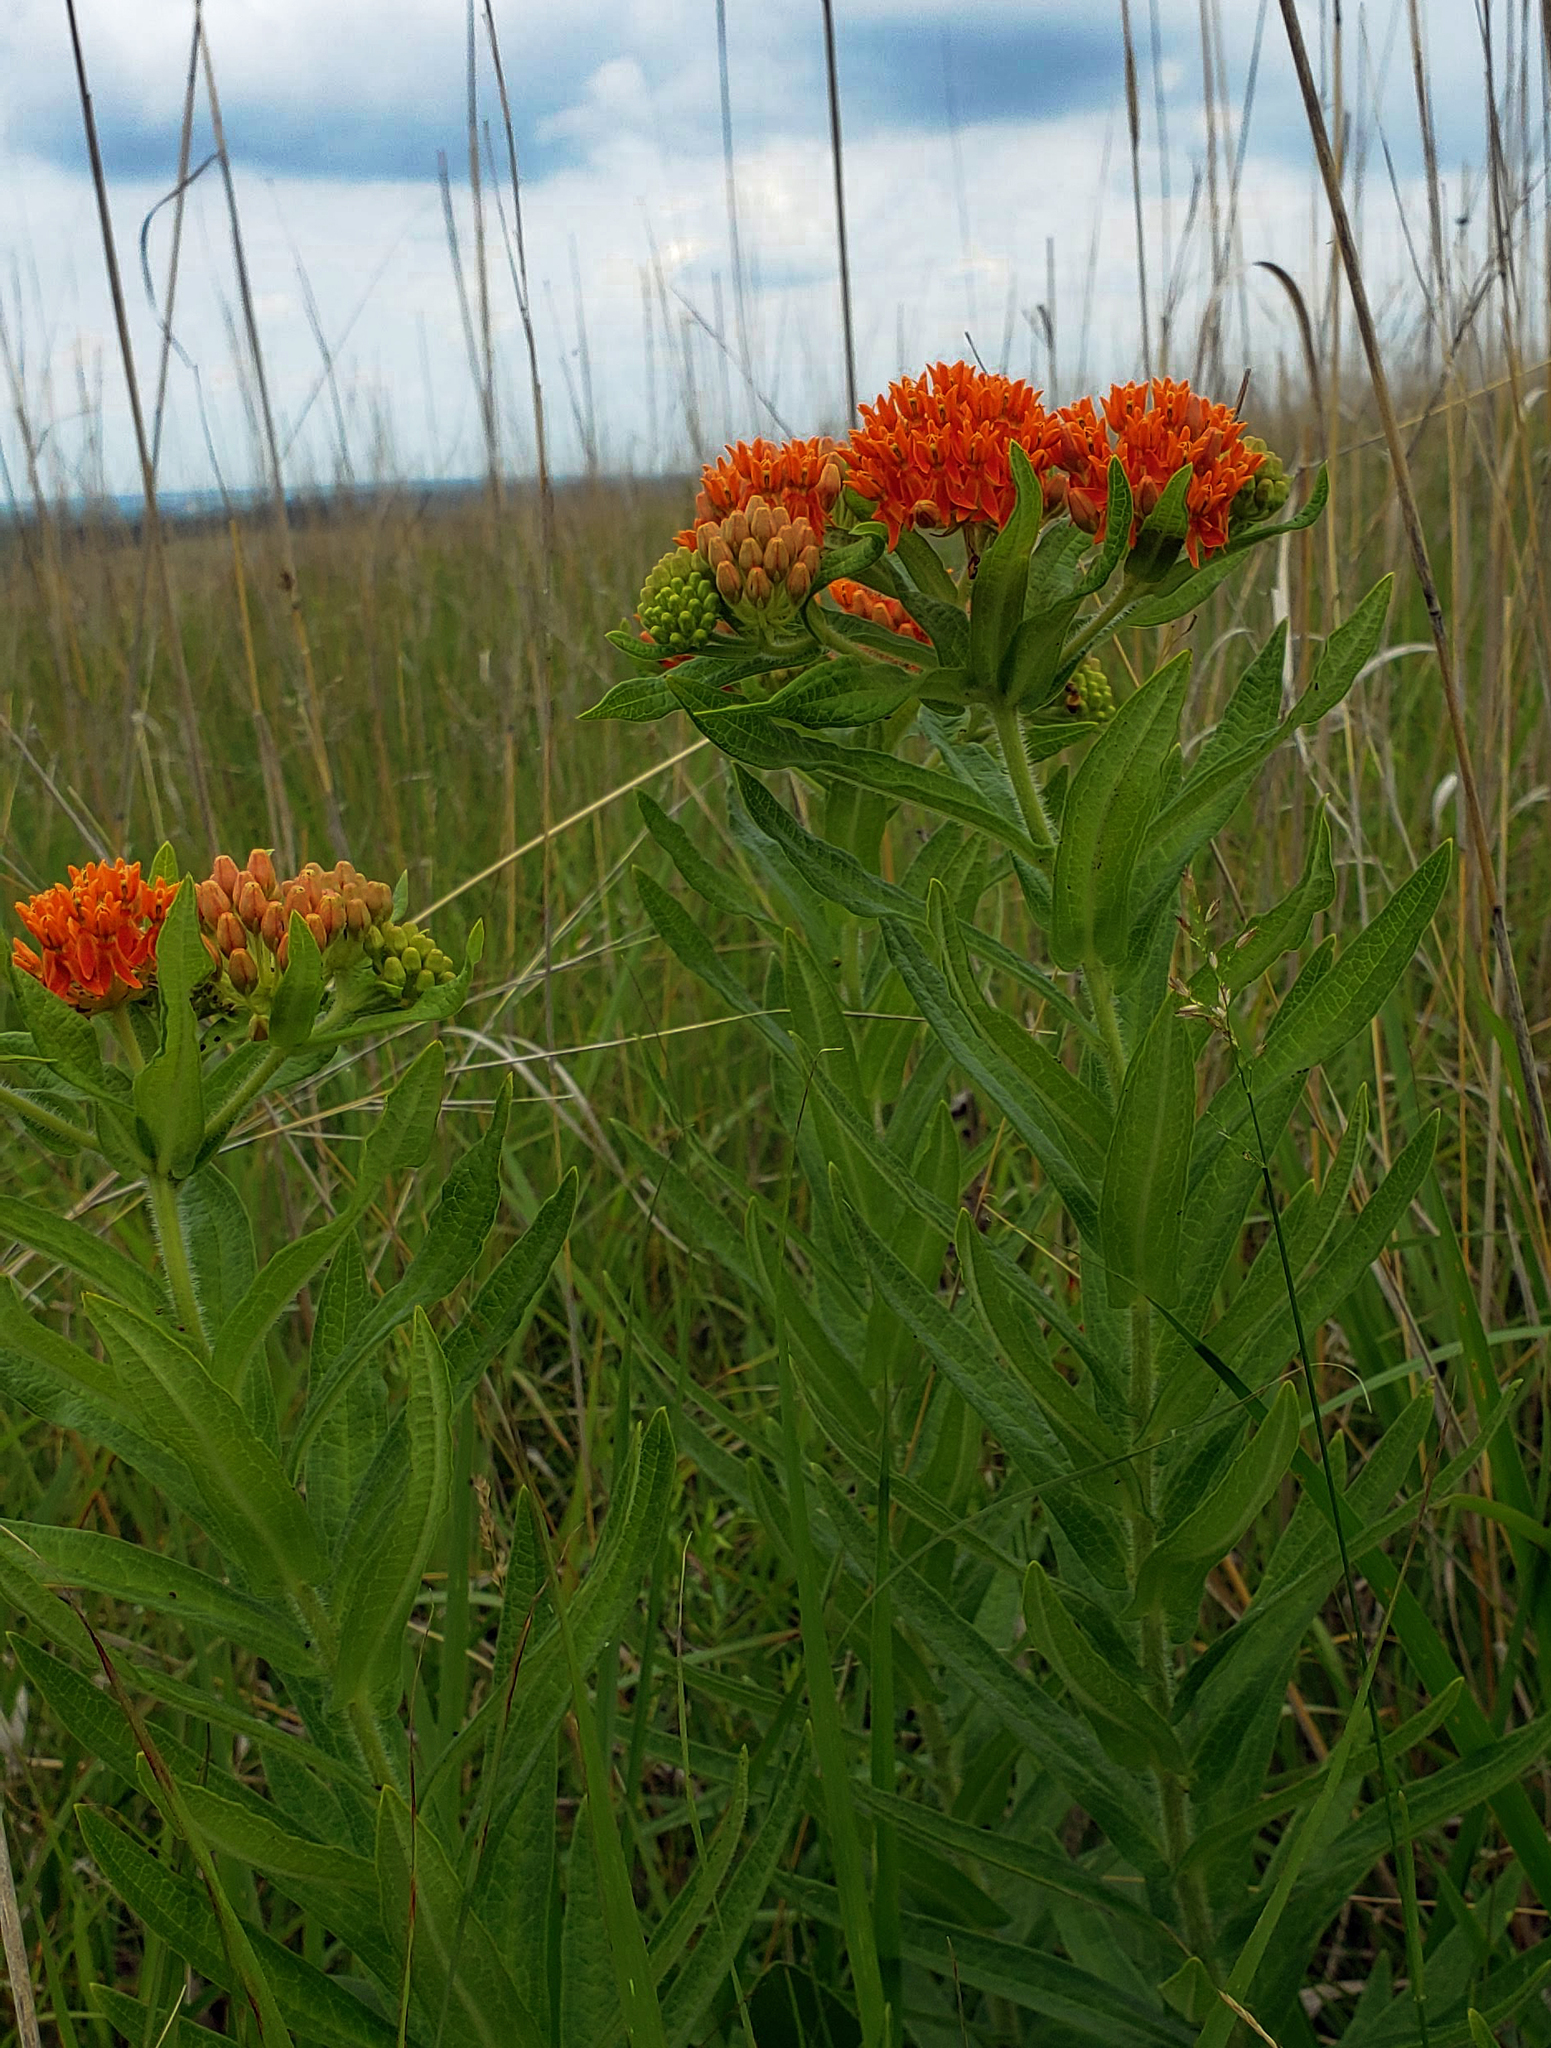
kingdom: Plantae
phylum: Tracheophyta
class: Magnoliopsida
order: Gentianales
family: Apocynaceae
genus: Asclepias
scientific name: Asclepias tuberosa
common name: Butterfly milkweed
